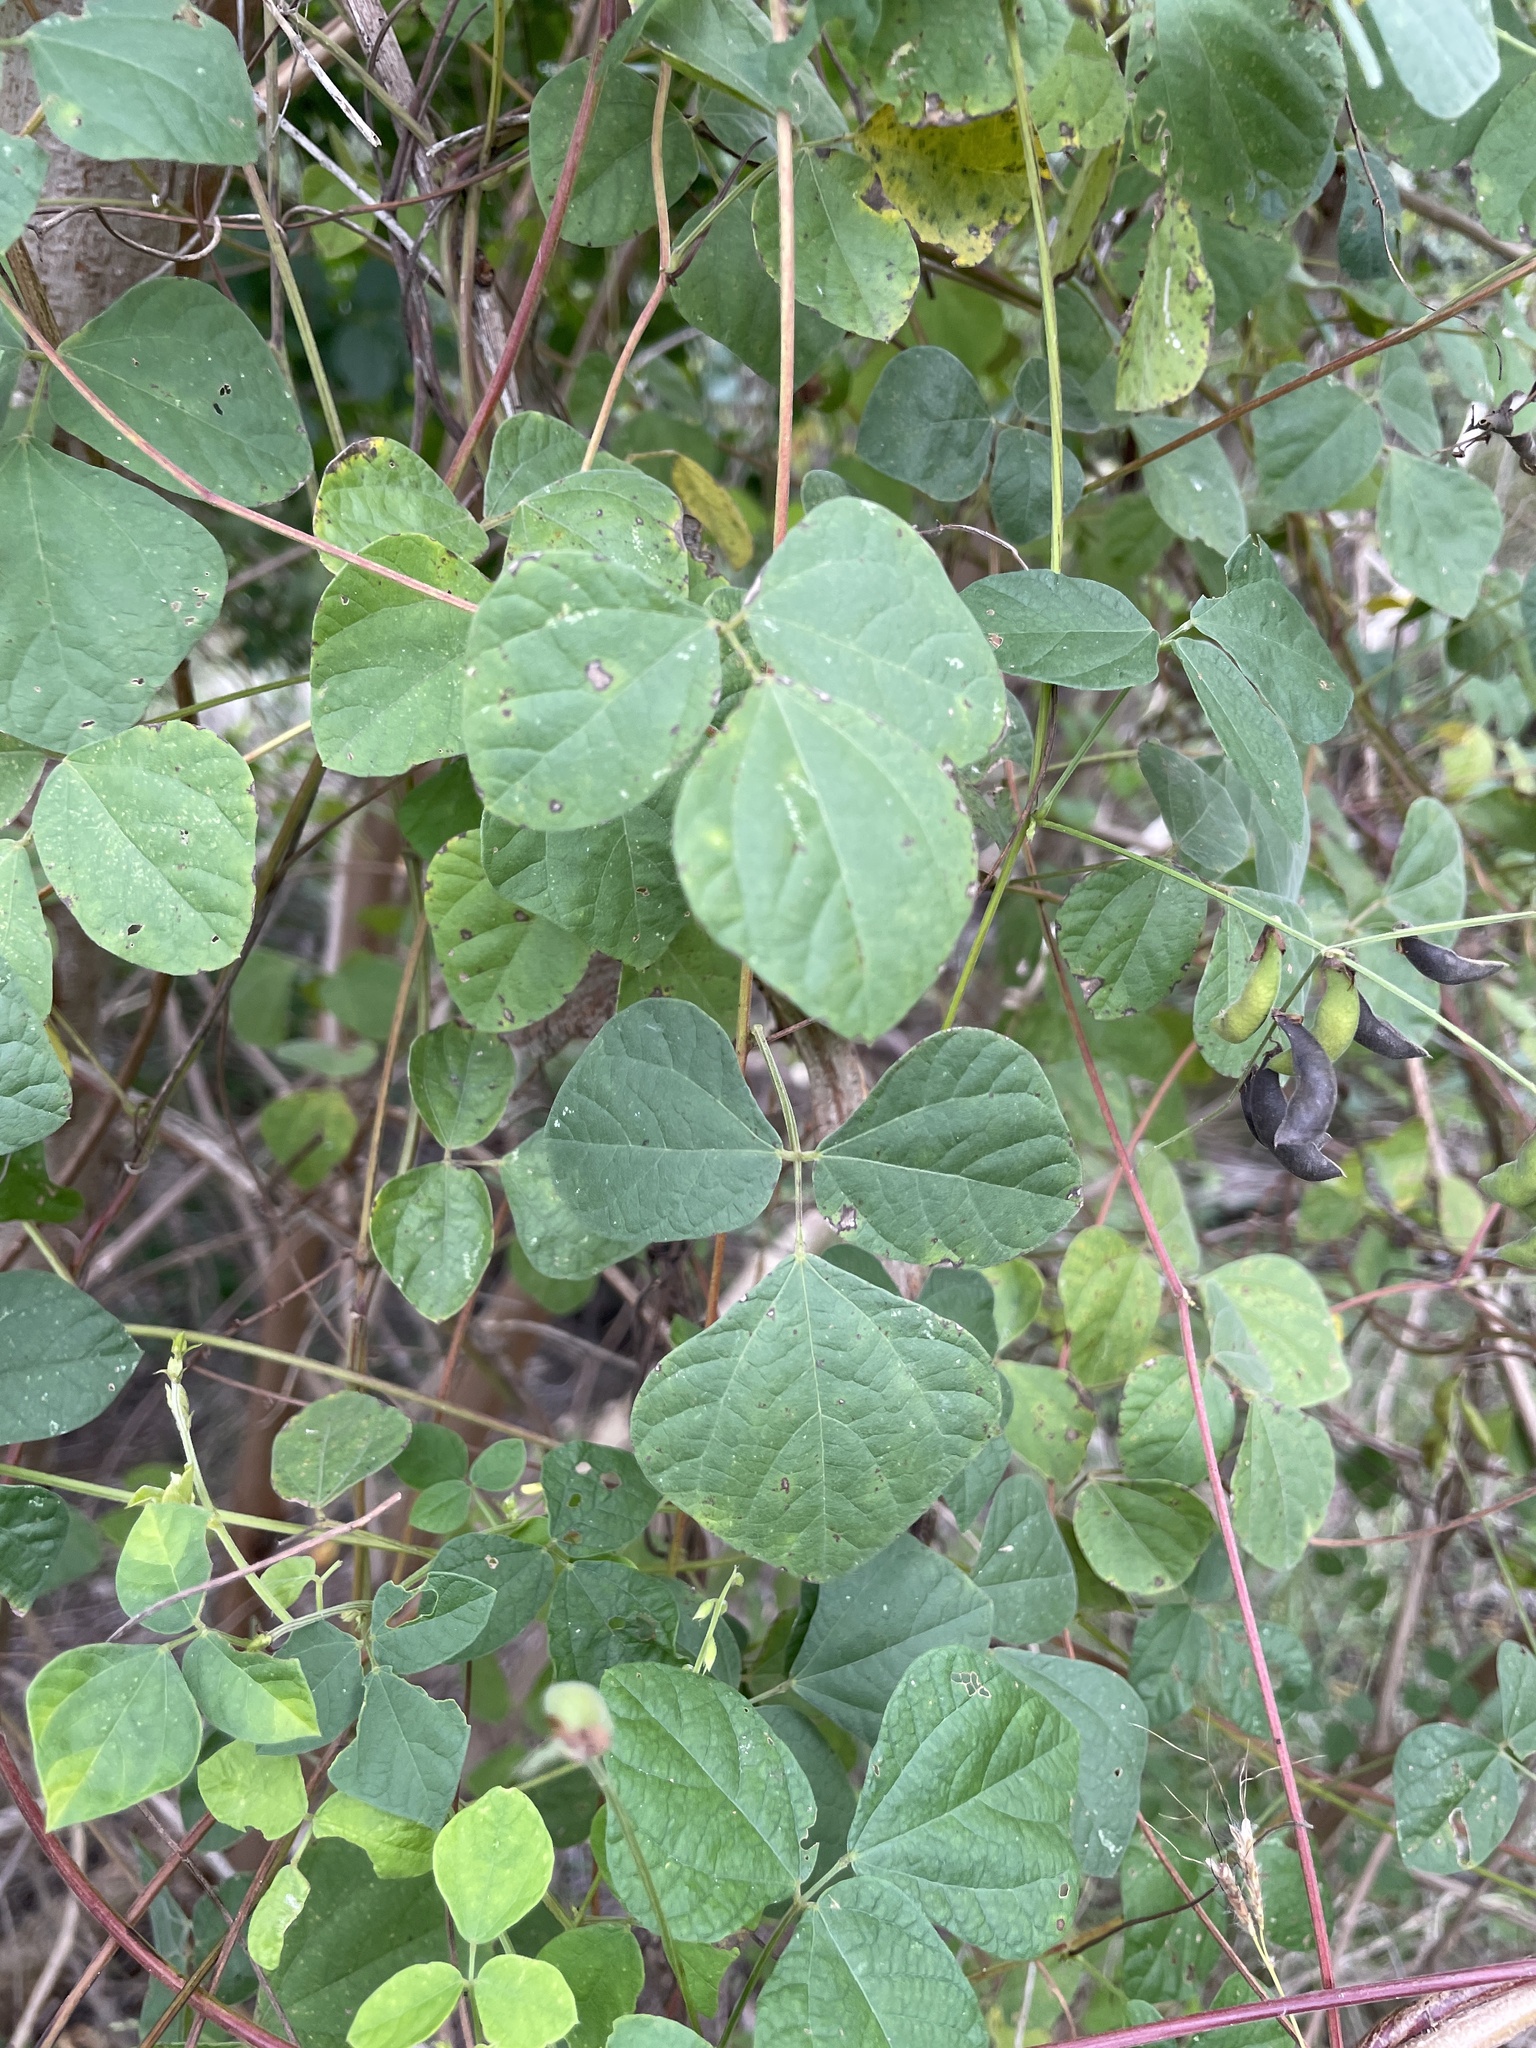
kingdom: Plantae
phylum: Tracheophyta
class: Magnoliopsida
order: Fabales
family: Fabaceae
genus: Rhynchosia
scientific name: Rhynchosia minima
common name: Least snoutbean
